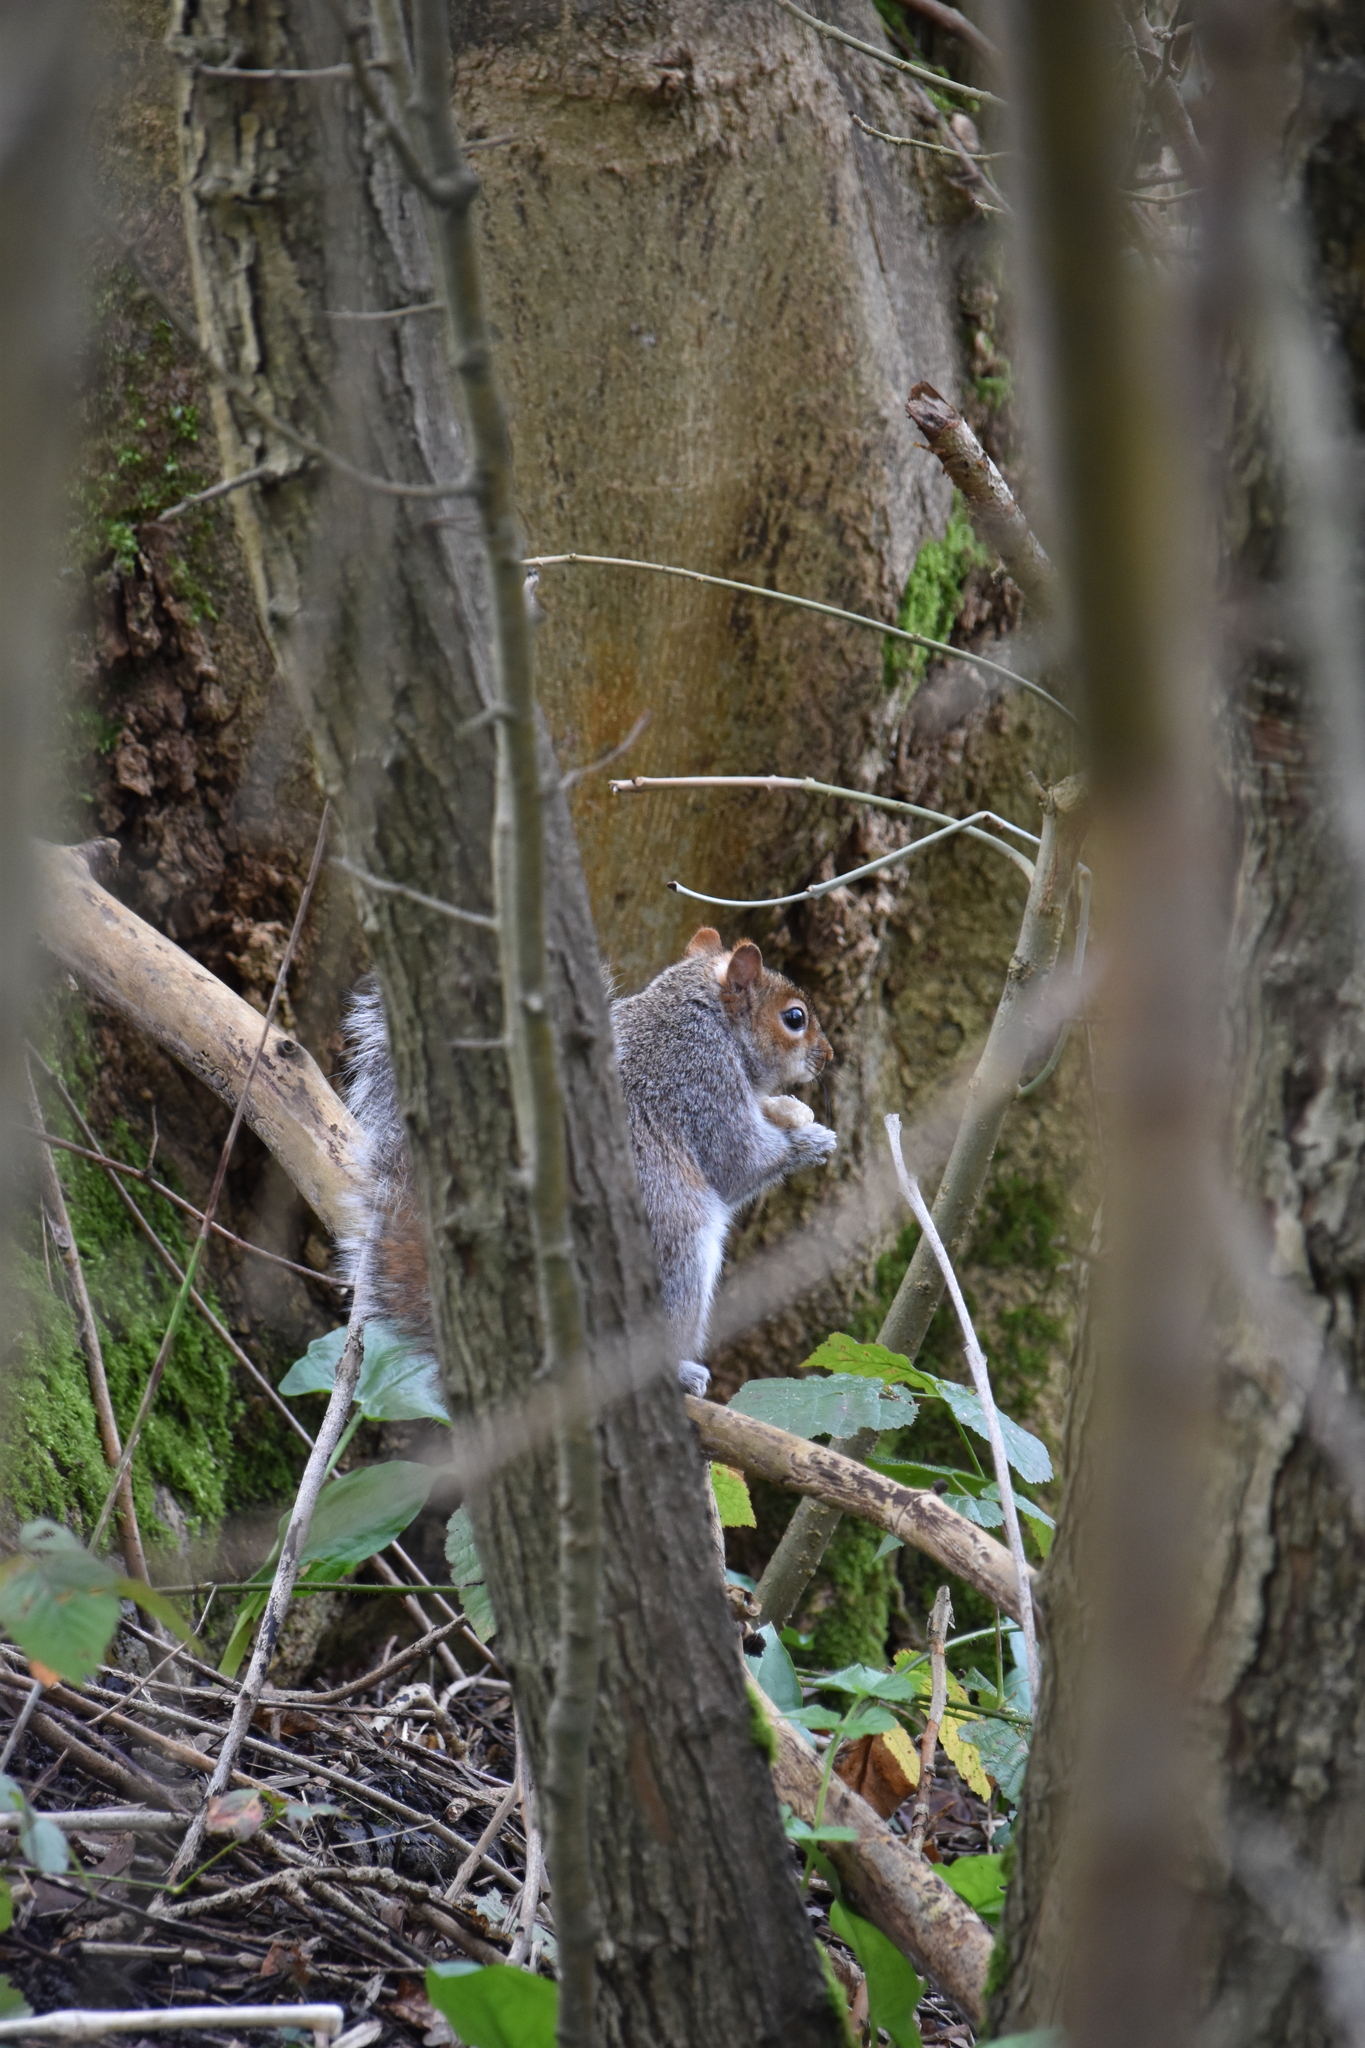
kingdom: Animalia
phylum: Chordata
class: Mammalia
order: Rodentia
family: Sciuridae
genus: Sciurus
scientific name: Sciurus carolinensis
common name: Eastern gray squirrel
